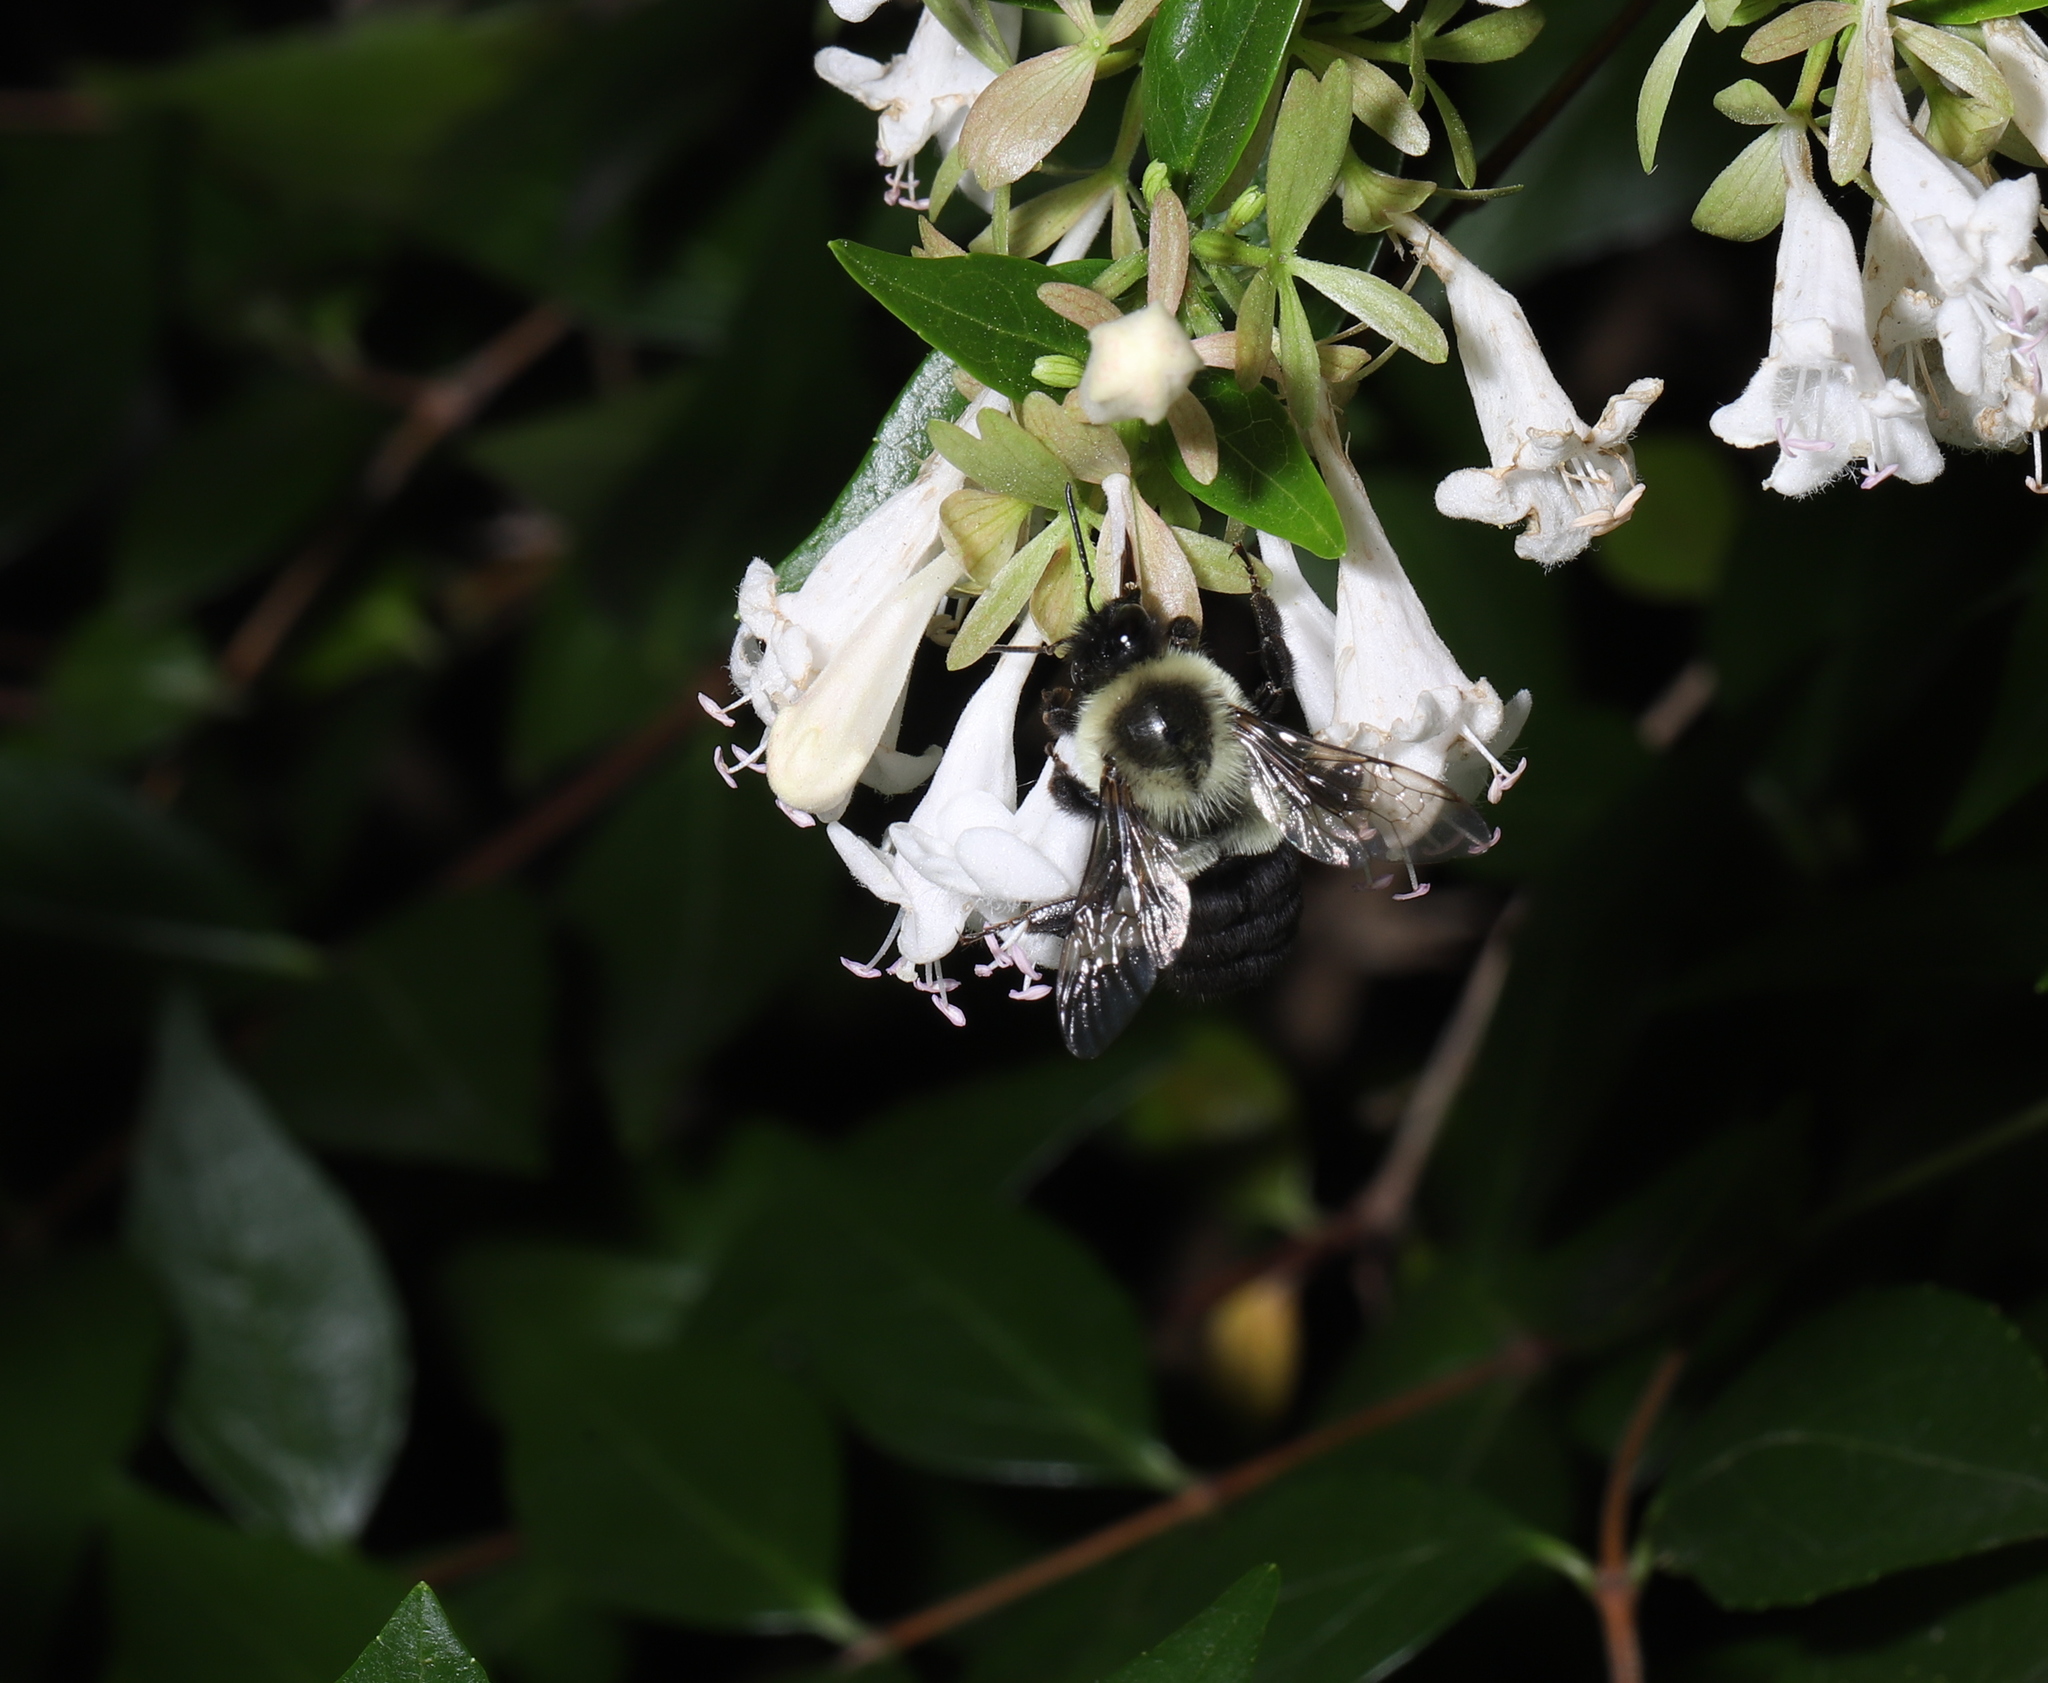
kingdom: Animalia
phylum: Arthropoda
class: Insecta
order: Hymenoptera
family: Apidae
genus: Bombus
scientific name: Bombus impatiens
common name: Common eastern bumble bee
